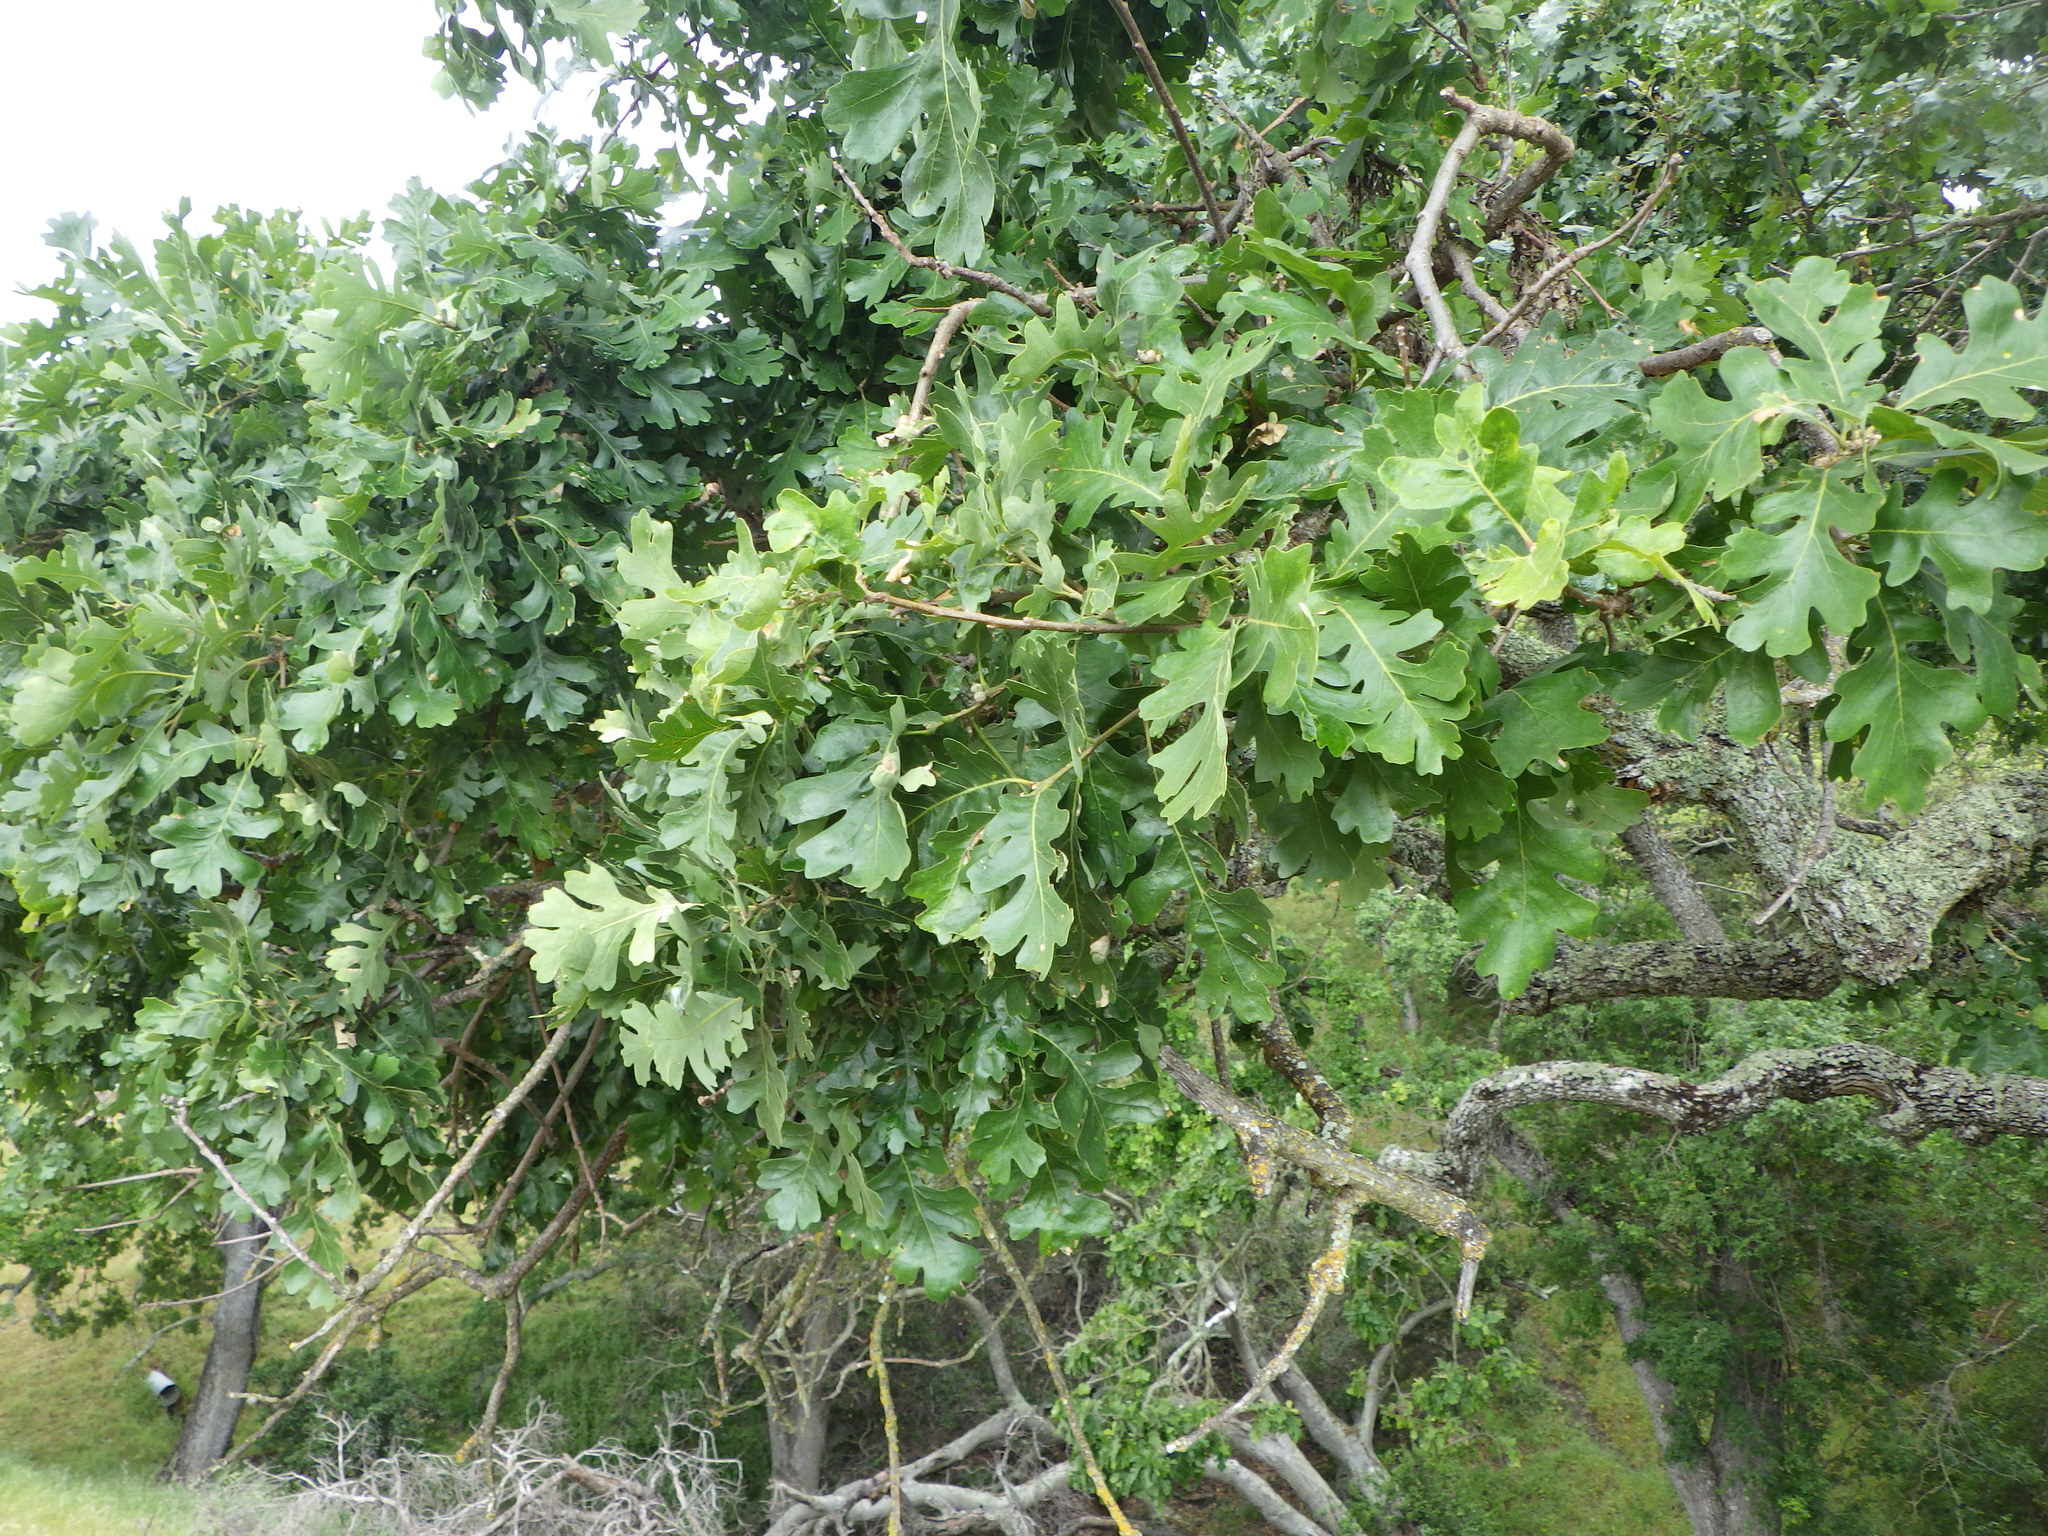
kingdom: Plantae
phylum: Tracheophyta
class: Magnoliopsida
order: Fagales
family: Fagaceae
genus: Quercus
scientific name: Quercus lobata
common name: Valley oak
